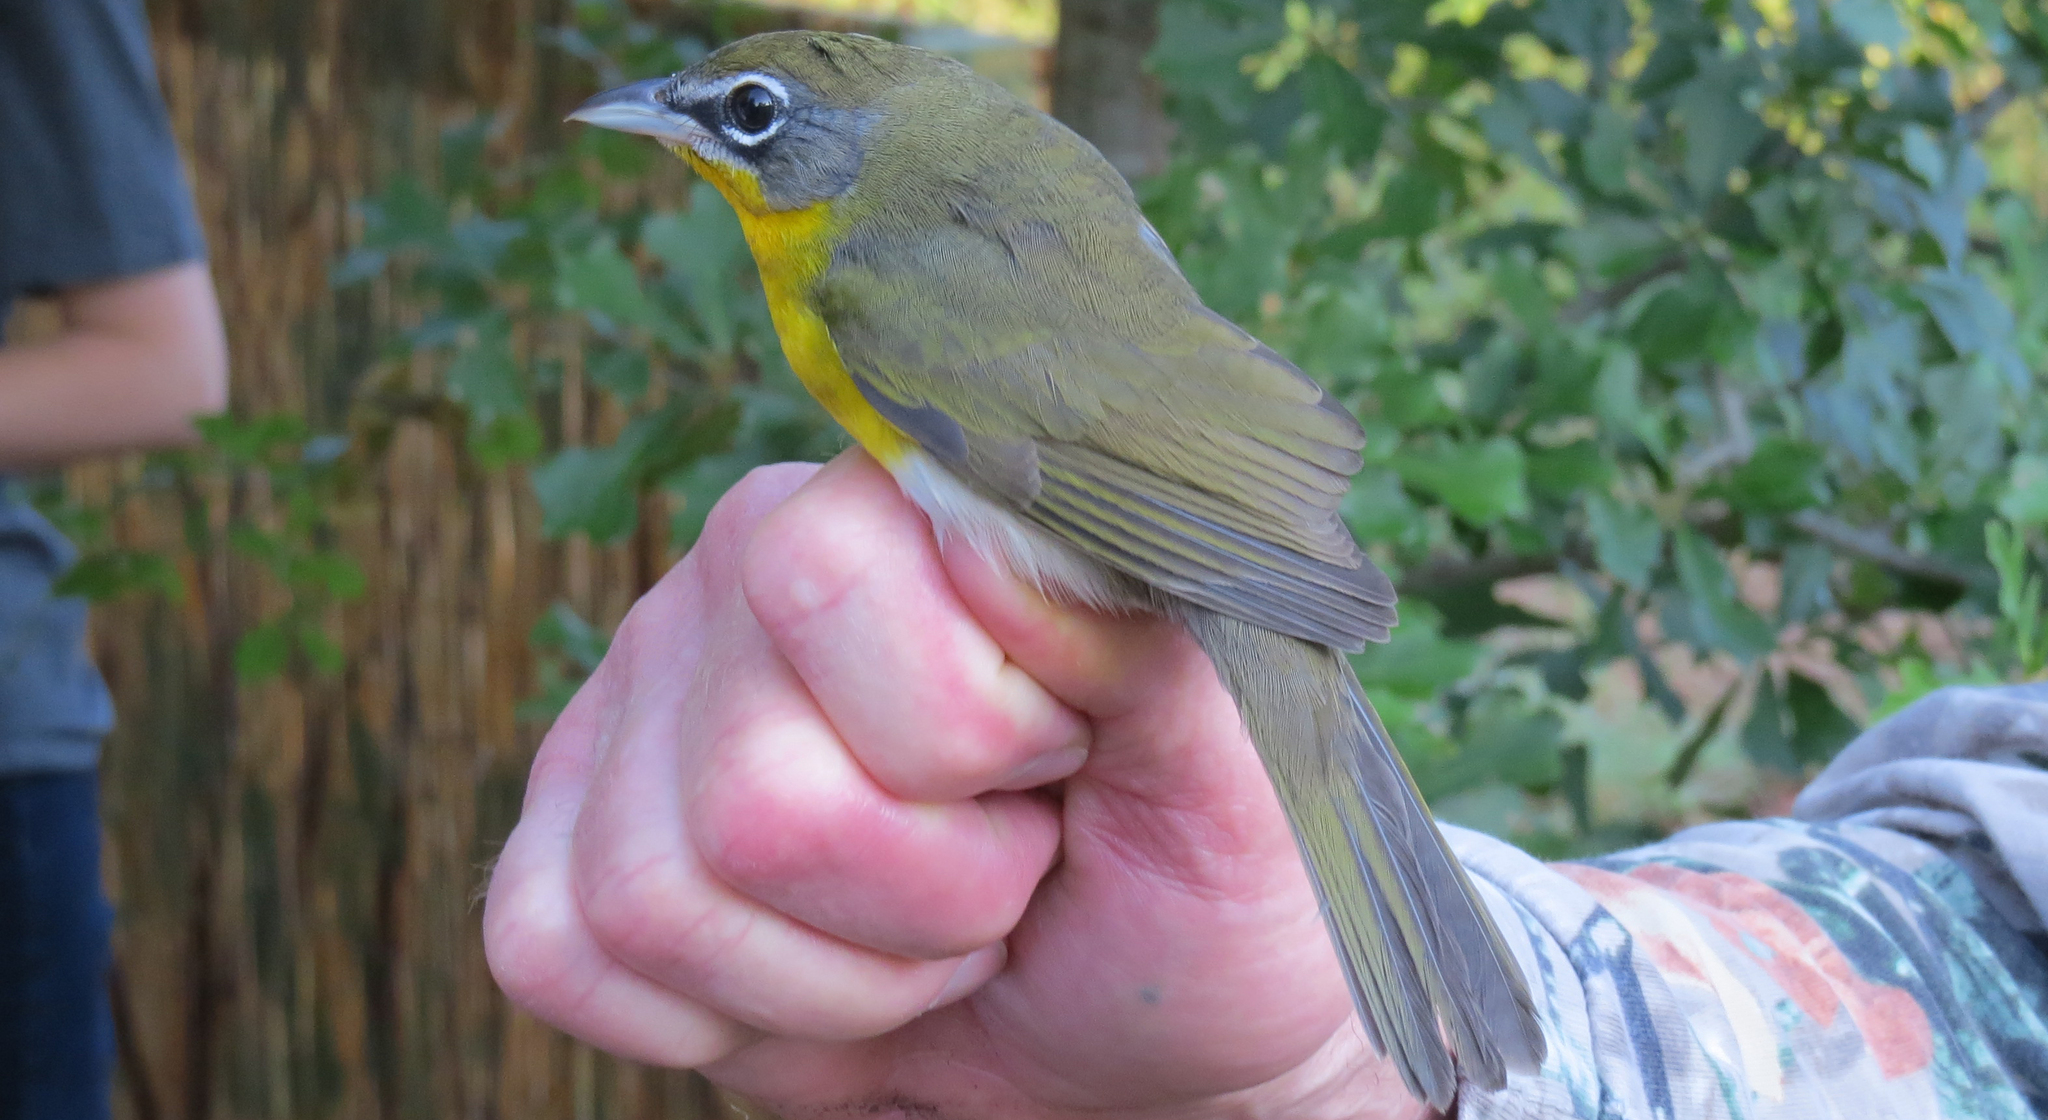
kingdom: Animalia
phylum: Chordata
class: Aves
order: Passeriformes
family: Parulidae
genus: Icteria
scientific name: Icteria virens
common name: Yellow-breasted chat
